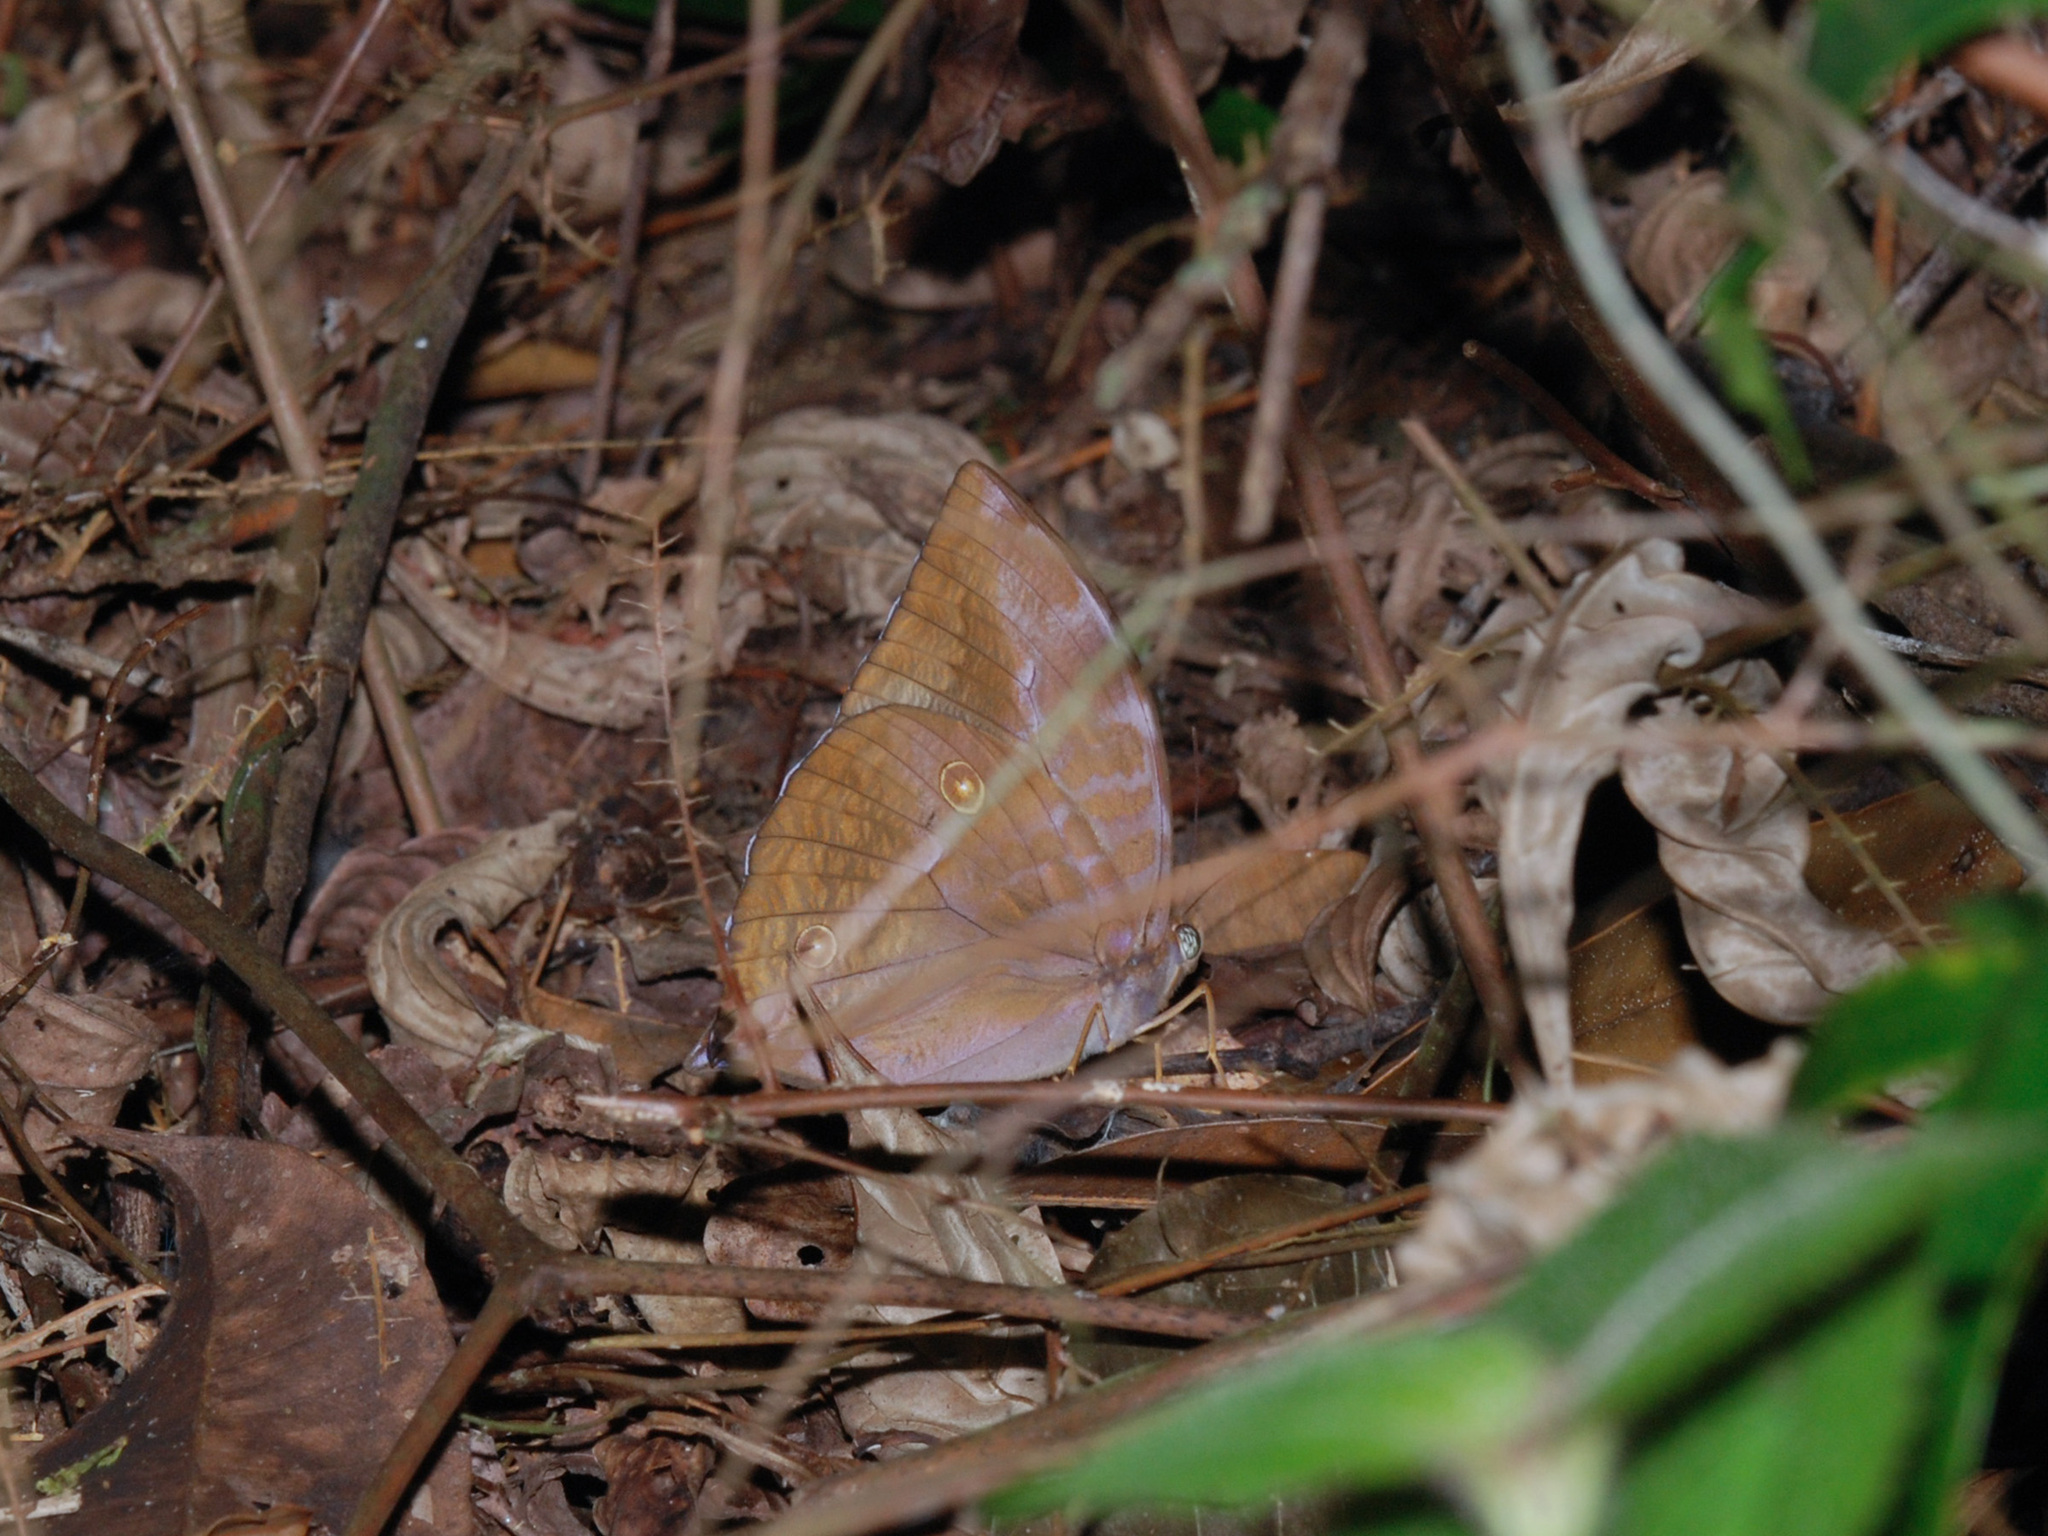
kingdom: Animalia
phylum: Arthropoda
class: Insecta
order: Lepidoptera
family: Nymphalidae
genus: Zeuxidia
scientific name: Zeuxidia amethysta
